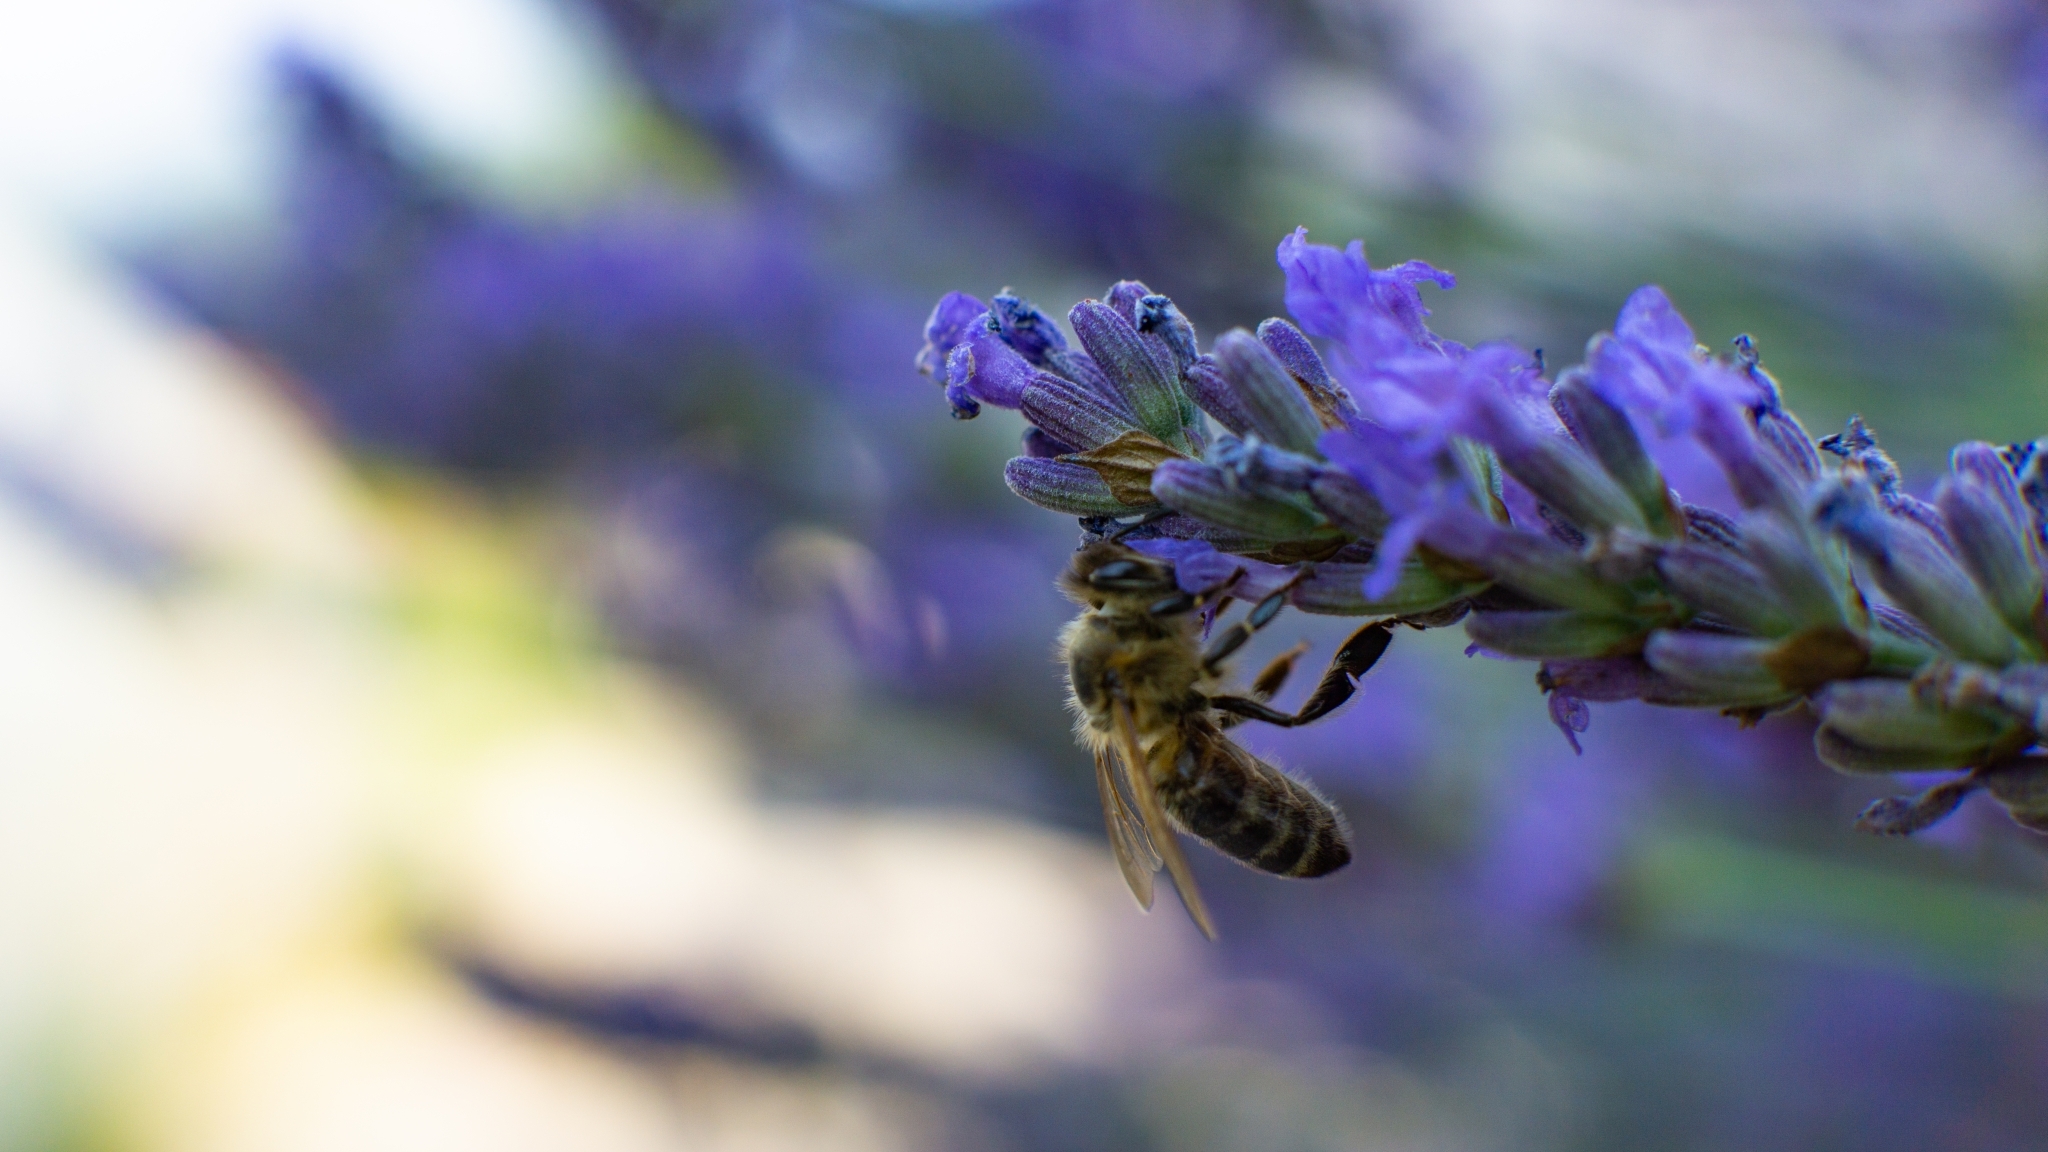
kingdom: Animalia
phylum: Arthropoda
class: Insecta
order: Hymenoptera
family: Apidae
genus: Apis
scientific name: Apis mellifera
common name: Honey bee
